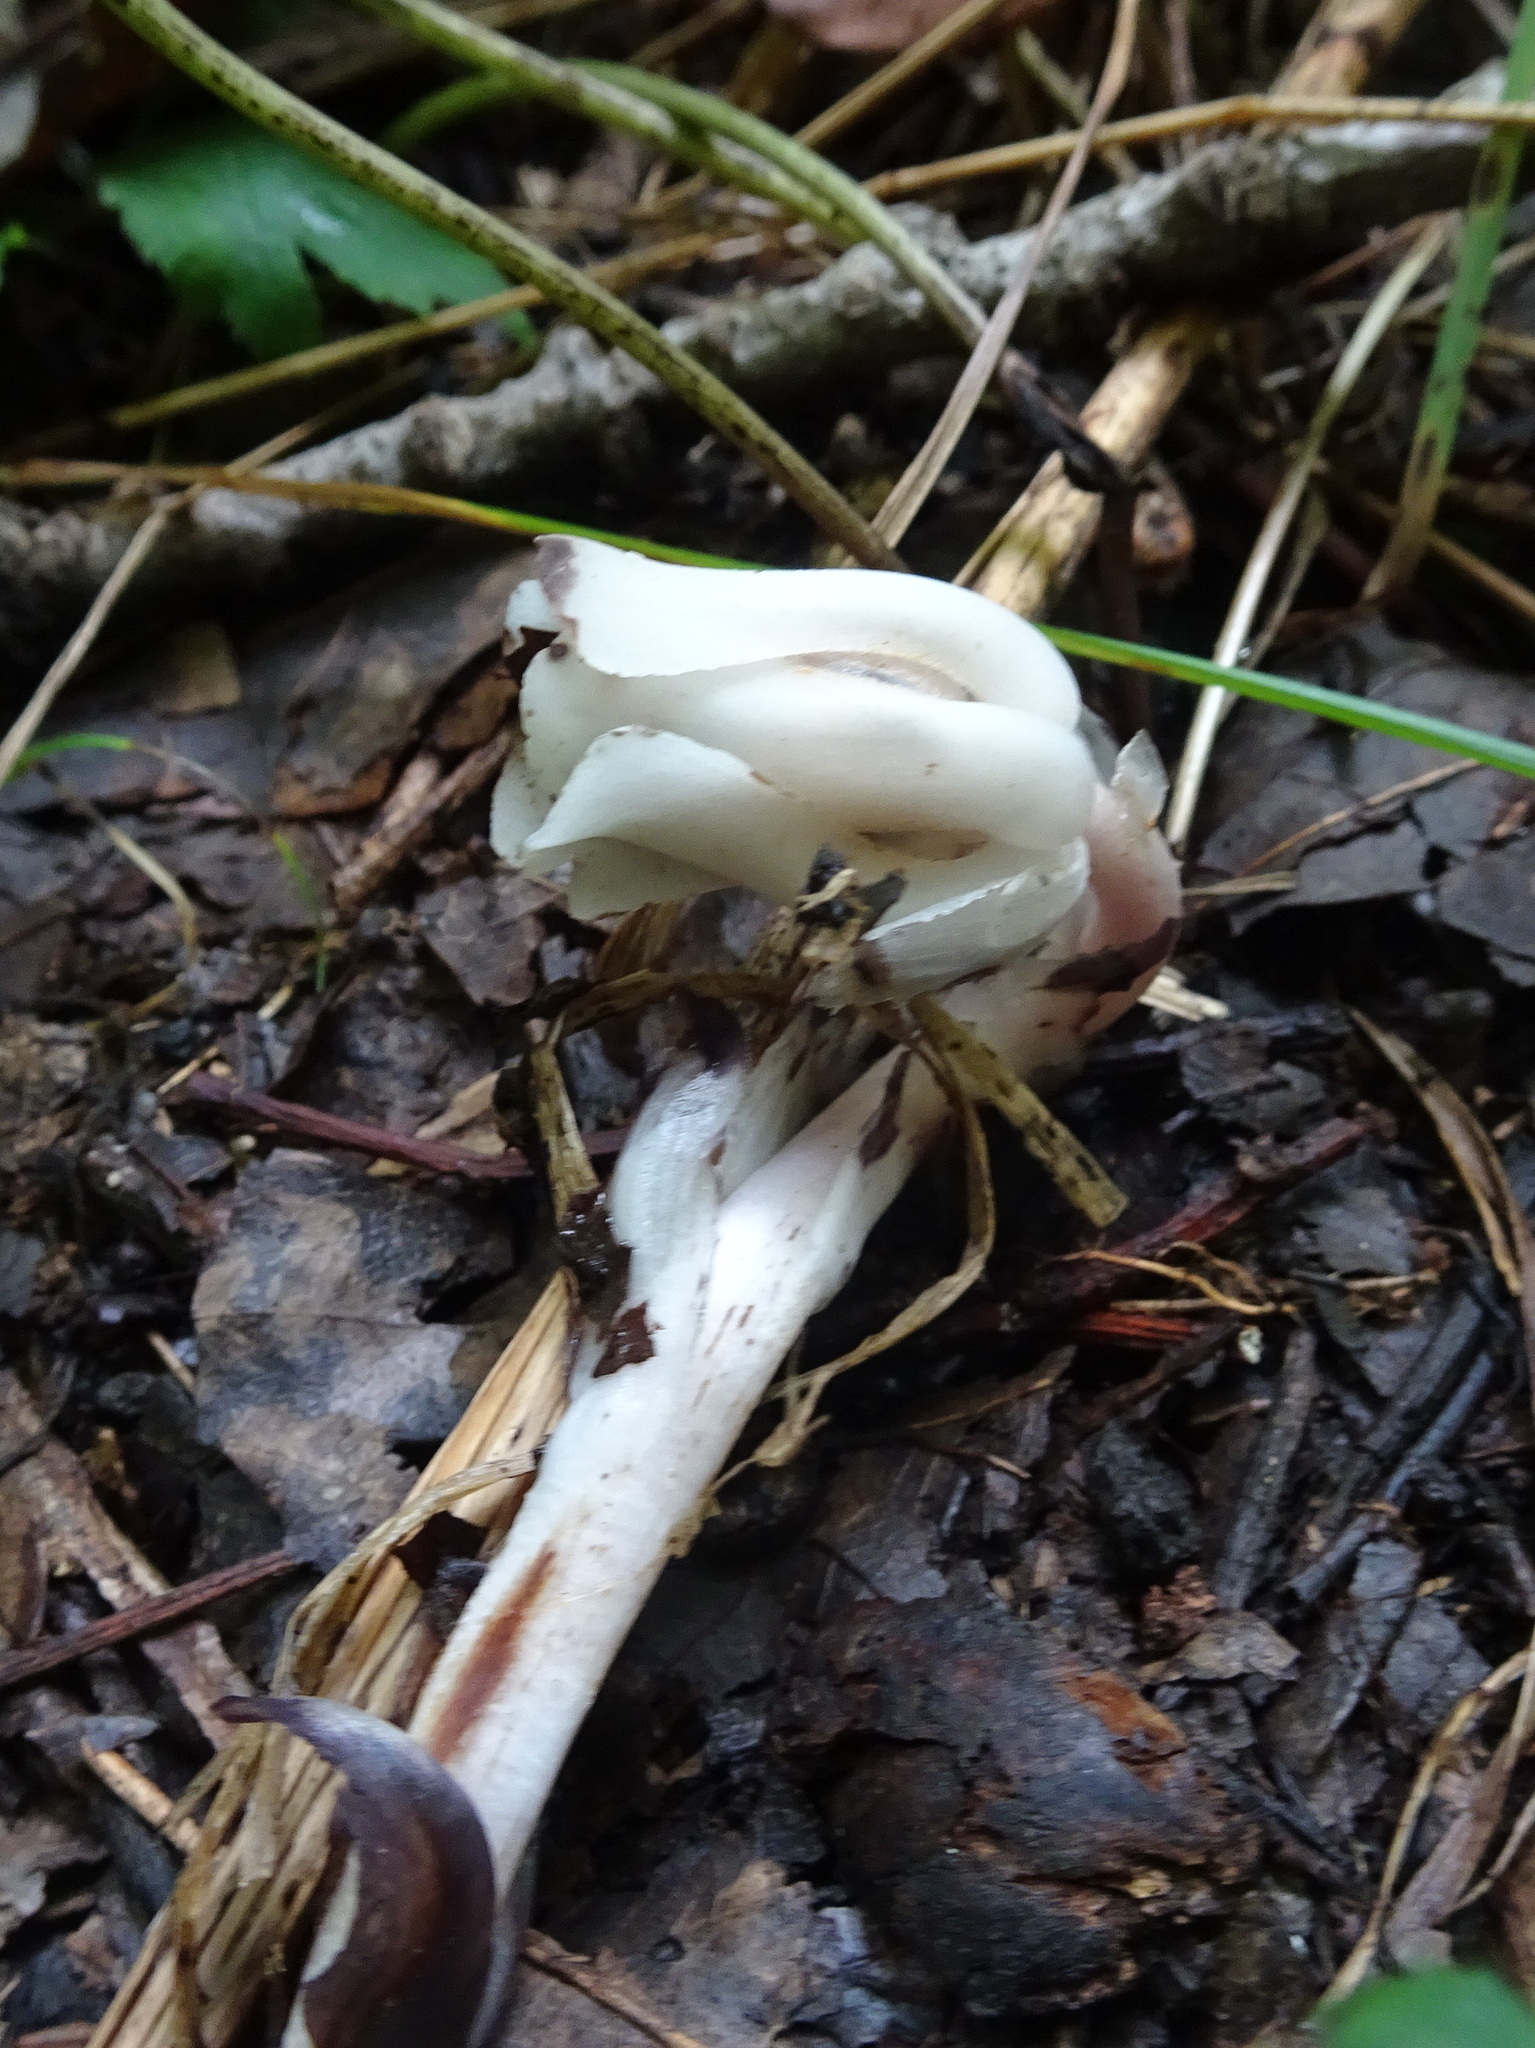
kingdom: Plantae
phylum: Tracheophyta
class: Magnoliopsida
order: Ericales
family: Ericaceae
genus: Monotropa
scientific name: Monotropa uniflora
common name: Convulsion root
